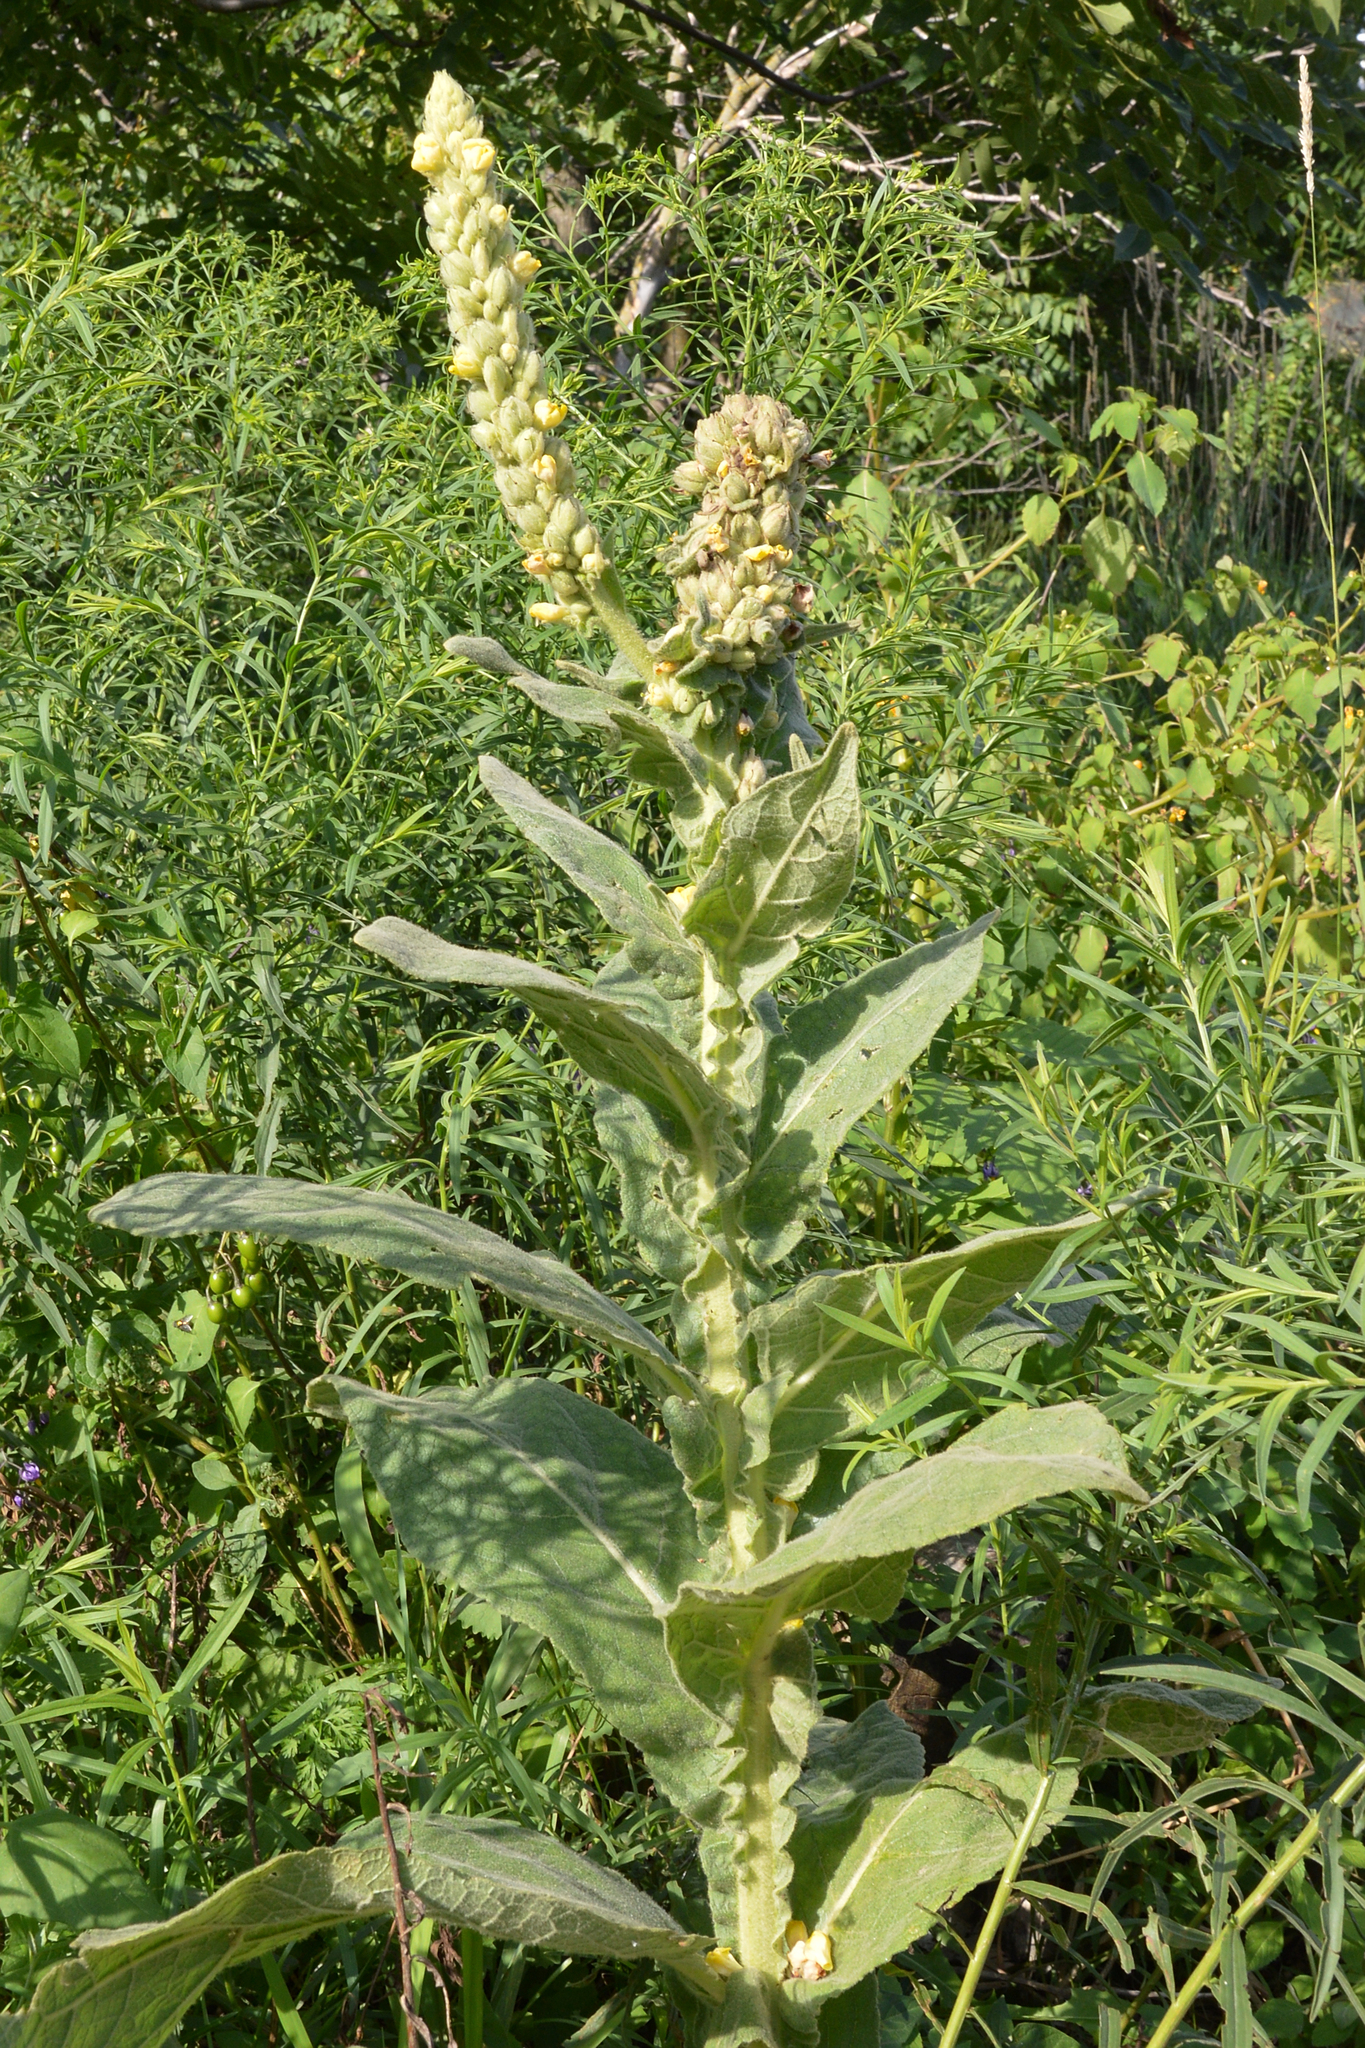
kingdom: Plantae
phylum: Tracheophyta
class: Magnoliopsida
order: Lamiales
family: Scrophulariaceae
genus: Verbascum
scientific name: Verbascum thapsus
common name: Common mullein
